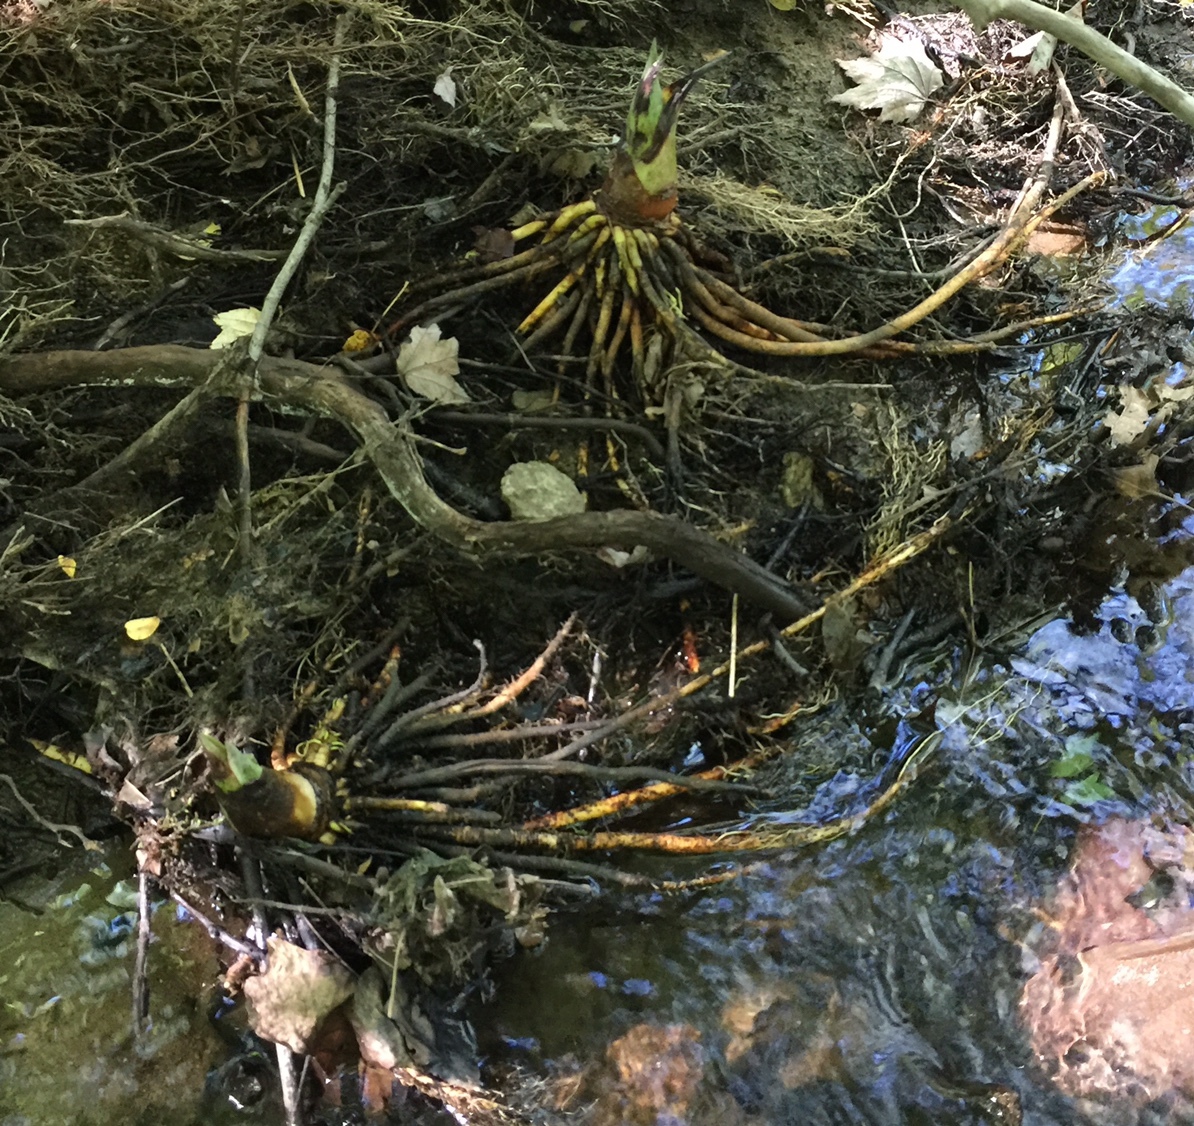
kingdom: Plantae
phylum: Tracheophyta
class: Liliopsida
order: Alismatales
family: Araceae
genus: Symplocarpus
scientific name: Symplocarpus foetidus
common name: Eastern skunk cabbage
